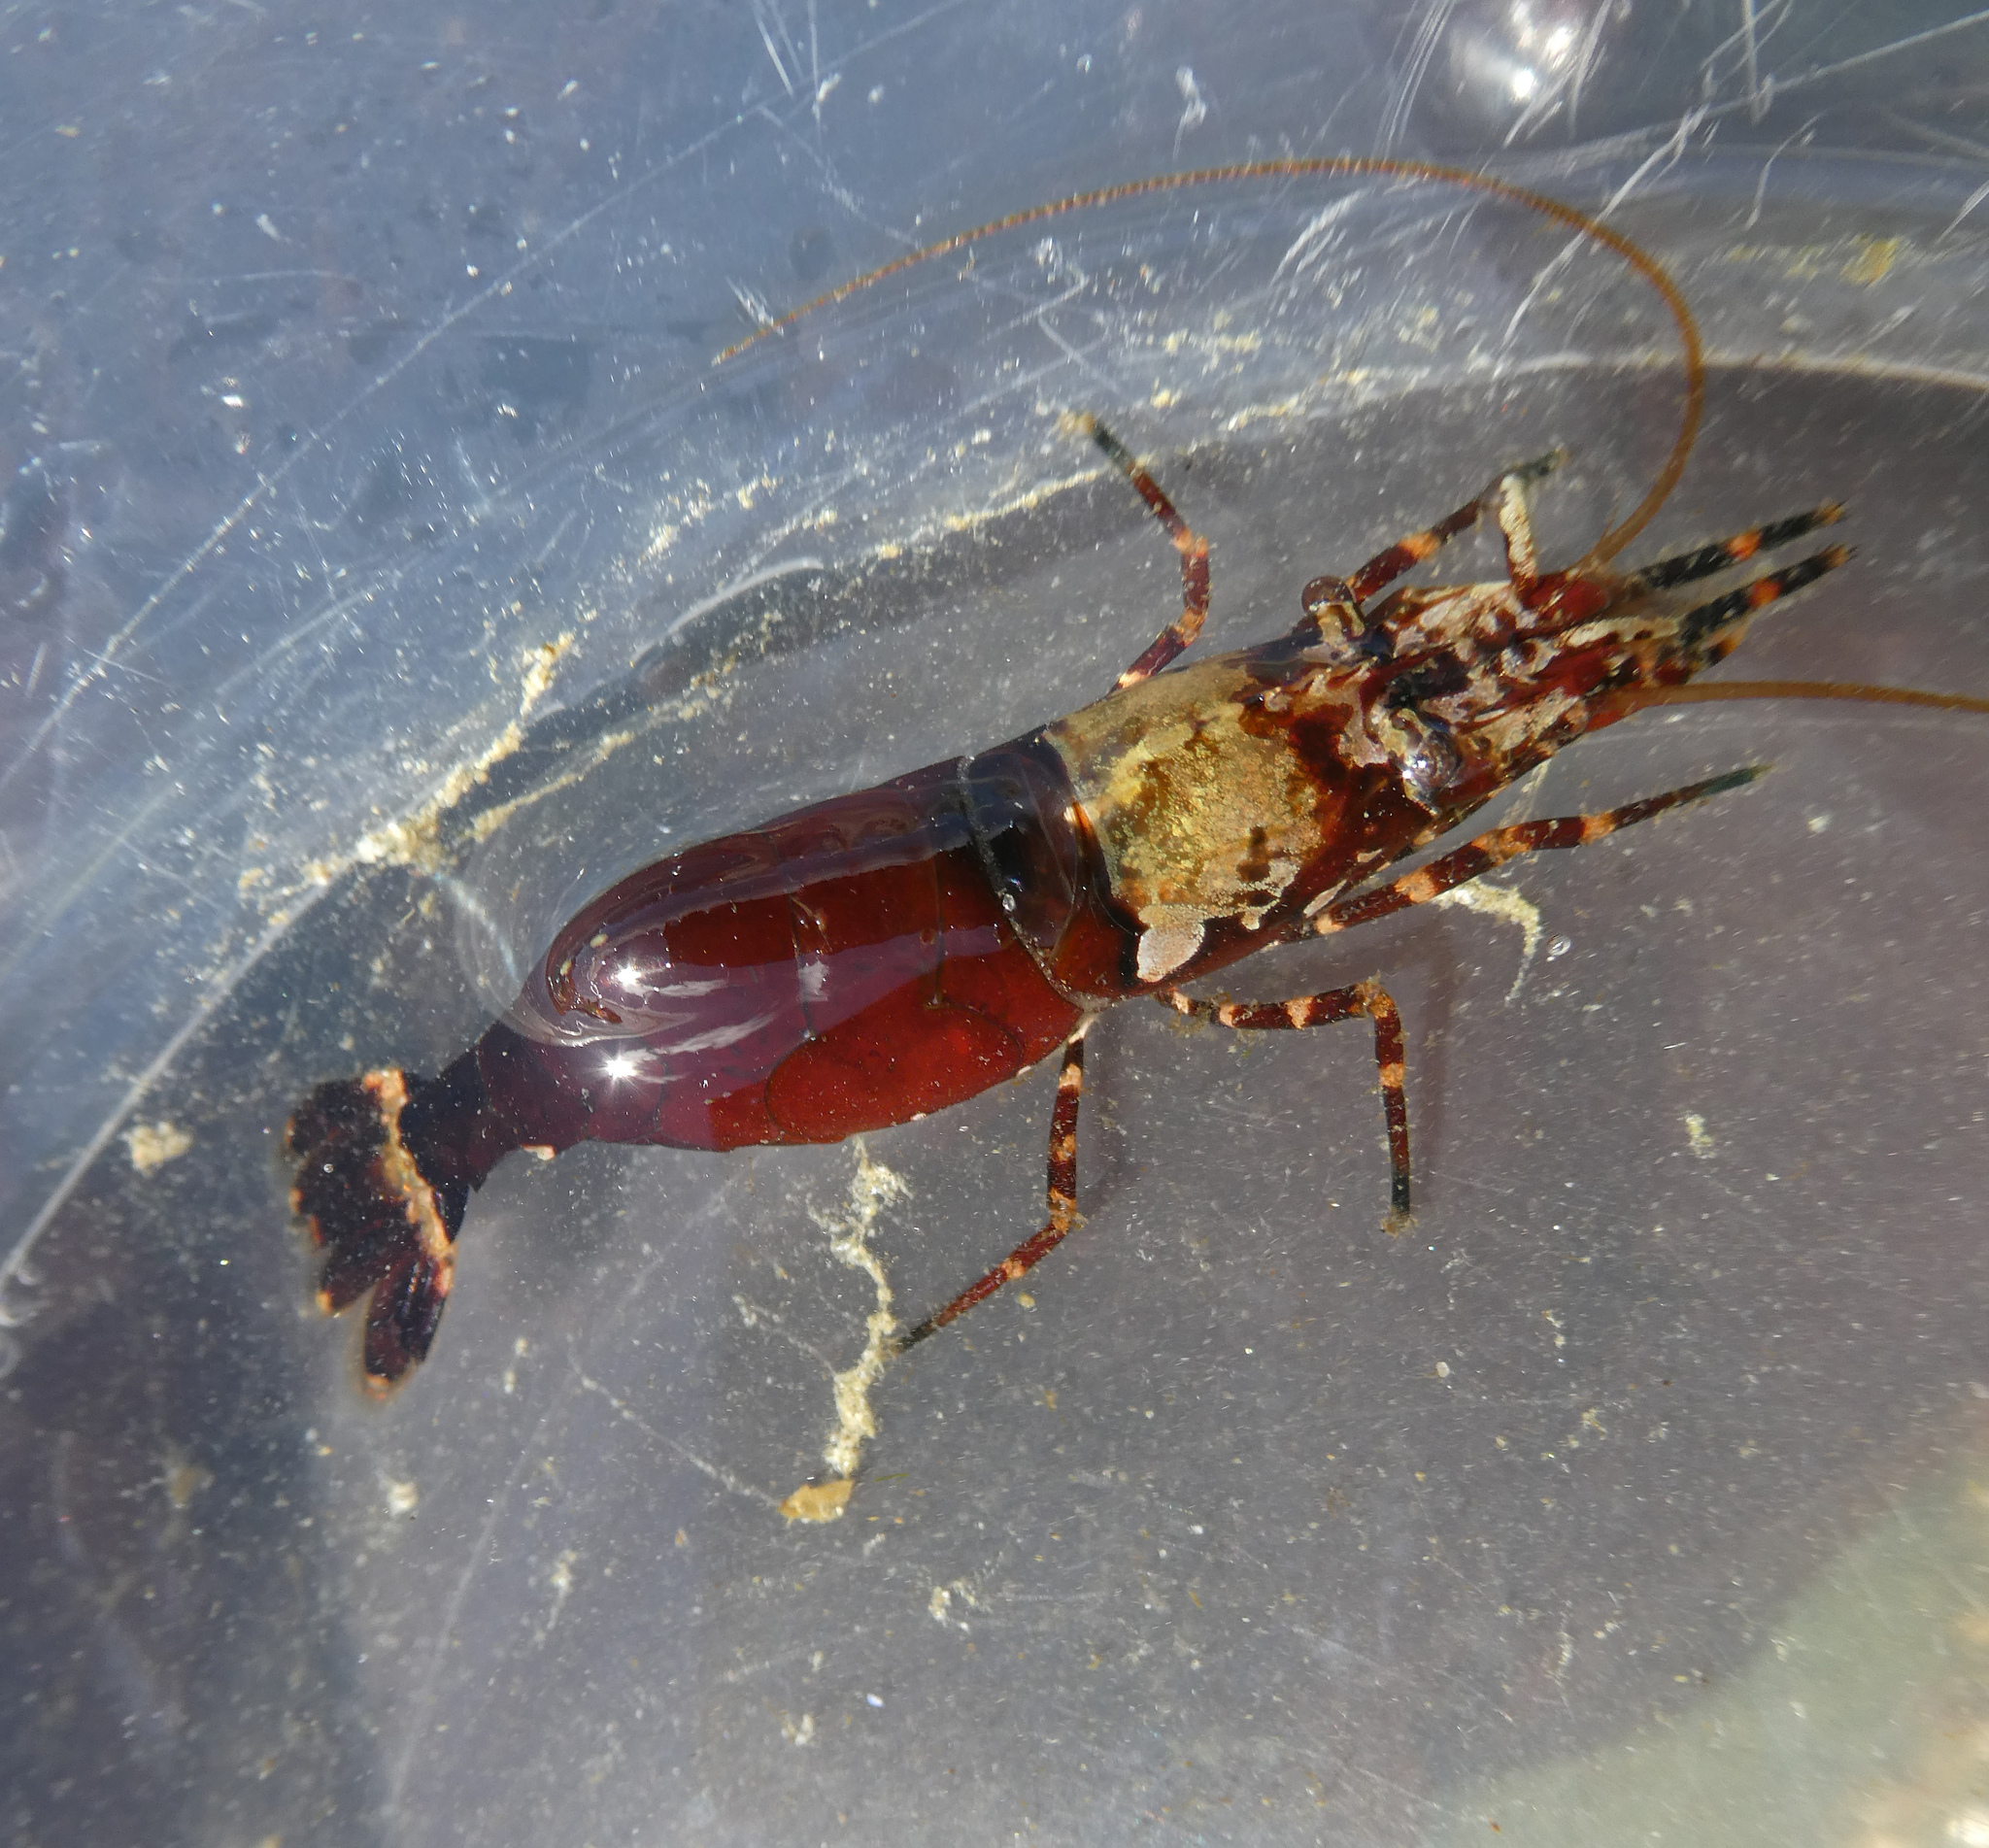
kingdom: Animalia
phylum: Arthropoda
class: Malacostraca
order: Decapoda
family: Thoridae
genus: Heptacarpus
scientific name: Heptacarpus brevirostris
